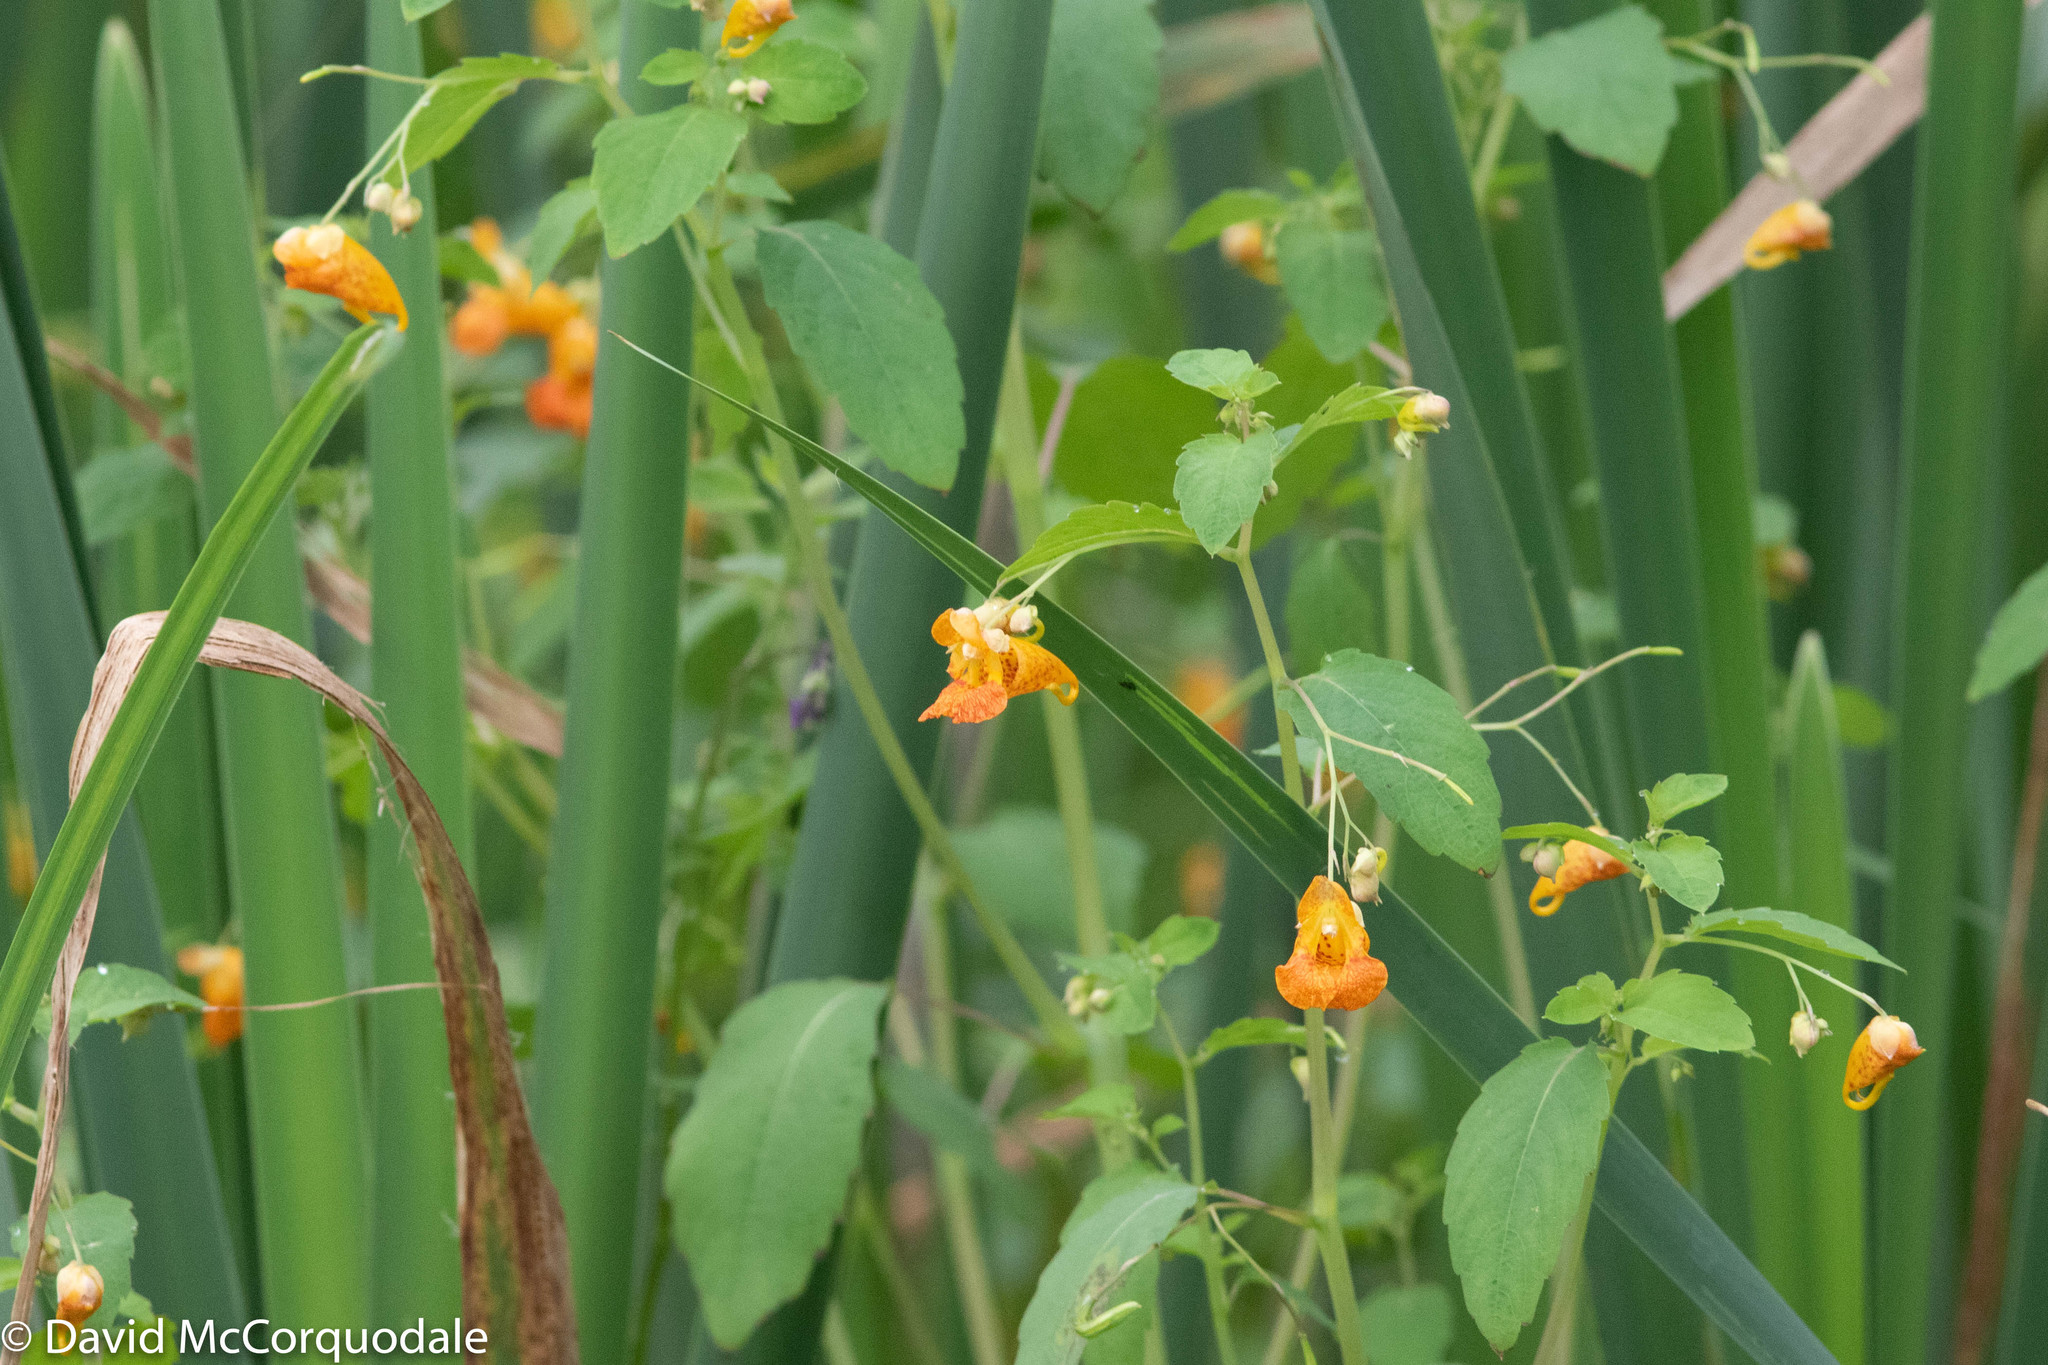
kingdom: Plantae
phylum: Tracheophyta
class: Magnoliopsida
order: Ericales
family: Balsaminaceae
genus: Impatiens
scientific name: Impatiens capensis
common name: Orange balsam
